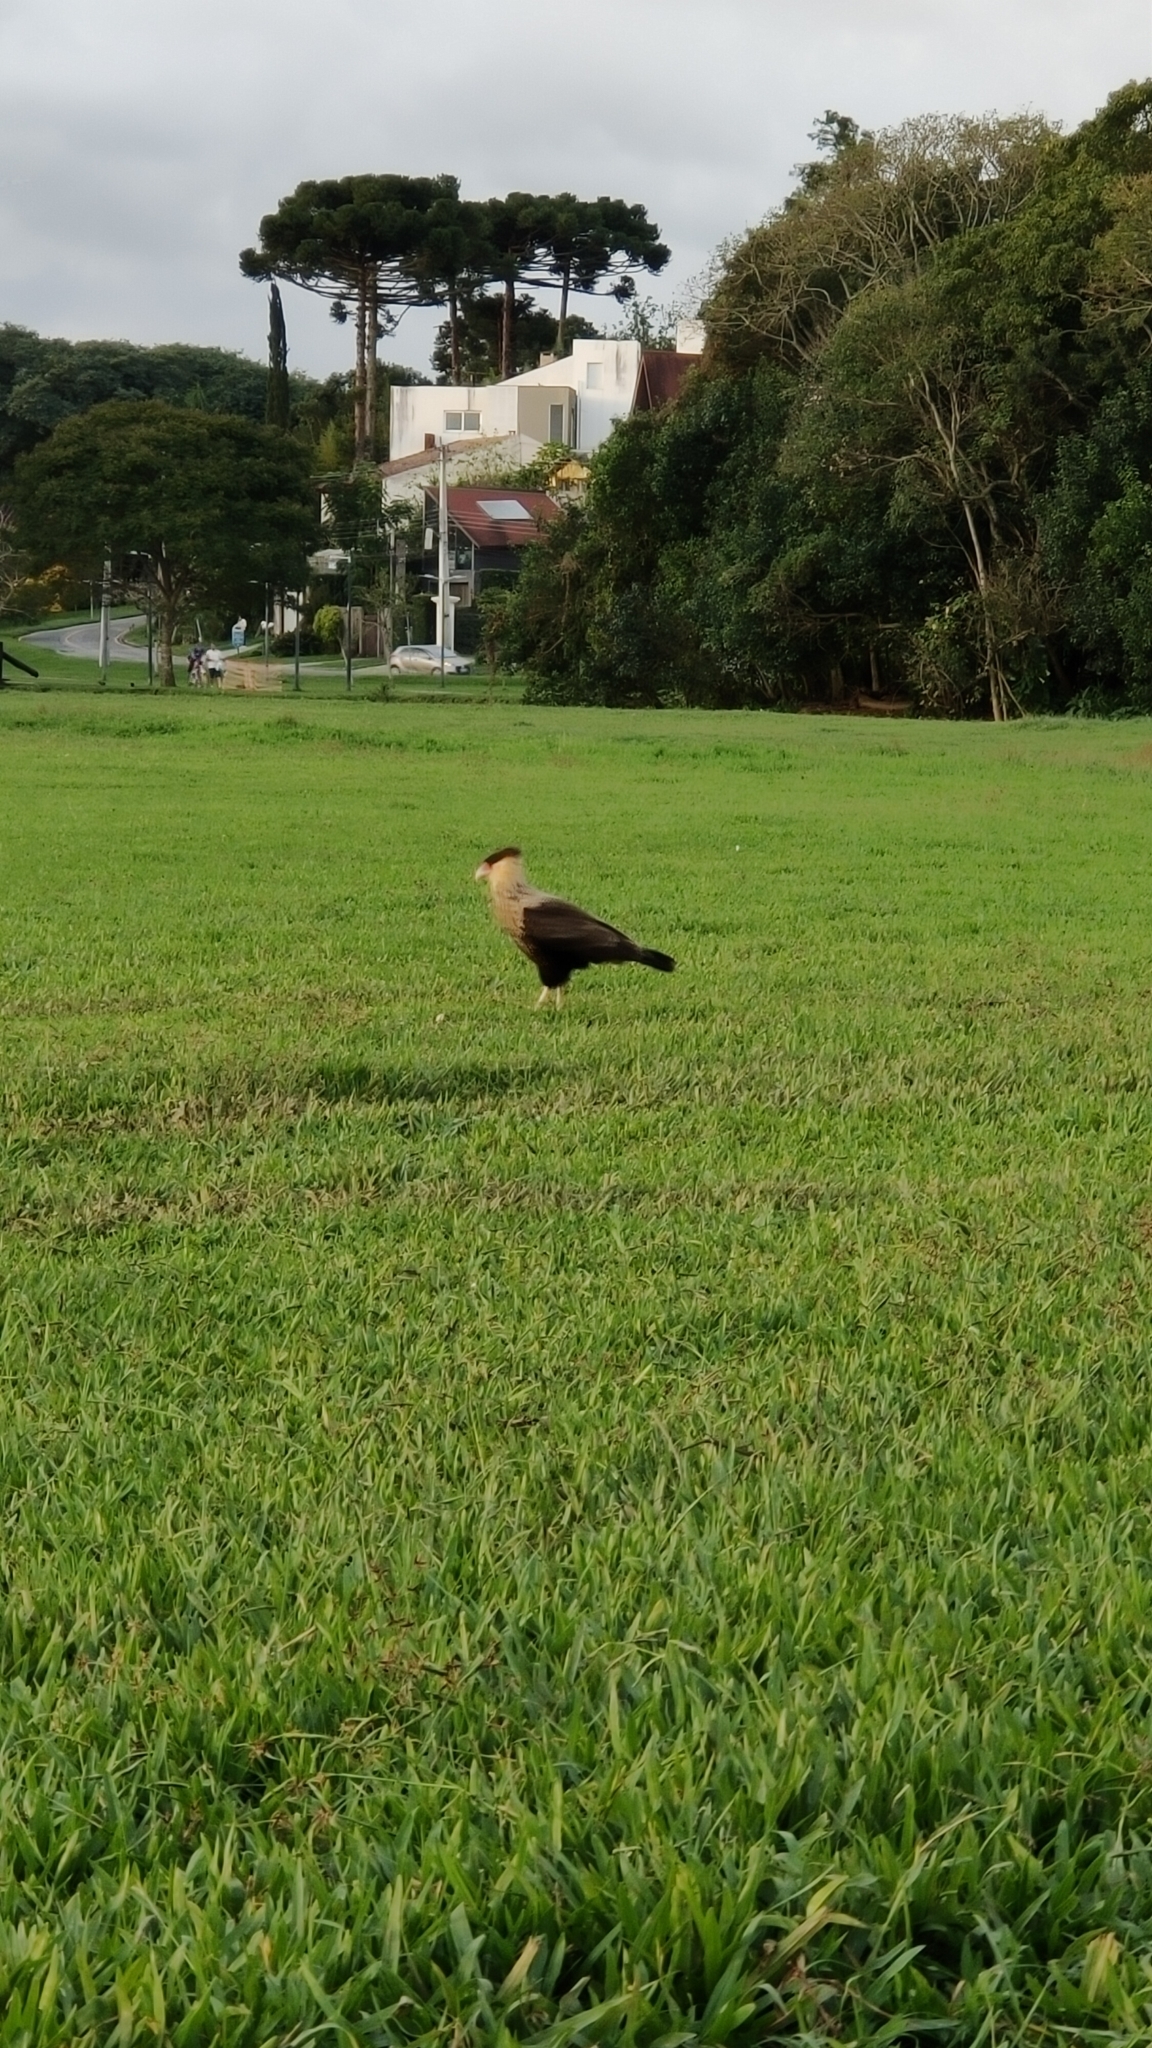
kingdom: Animalia
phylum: Chordata
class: Aves
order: Falconiformes
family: Falconidae
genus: Caracara
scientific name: Caracara plancus
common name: Southern caracara
